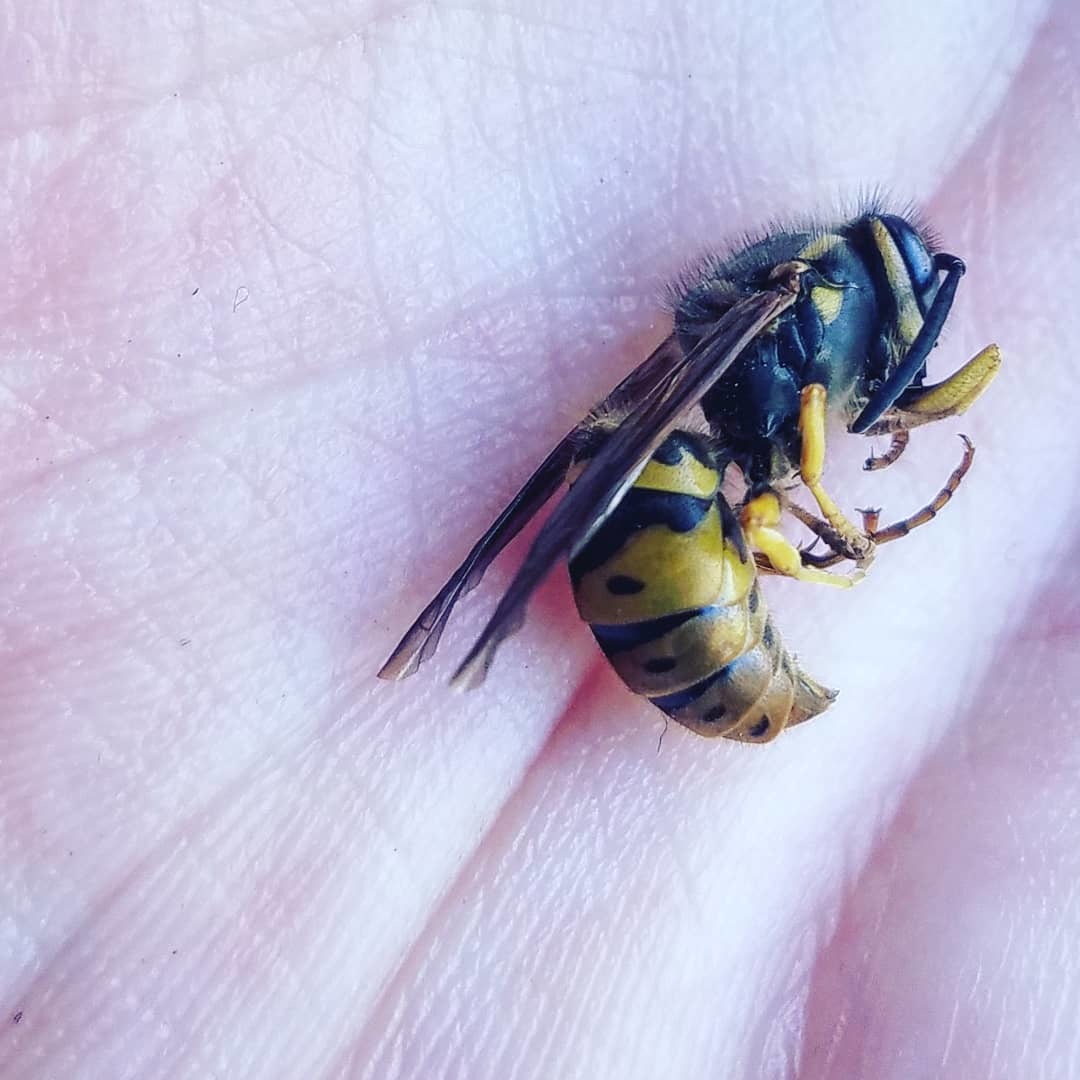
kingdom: Animalia
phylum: Arthropoda
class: Insecta
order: Hymenoptera
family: Vespidae
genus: Vespula
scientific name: Vespula maculifrons
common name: Eastern yellowjacket
